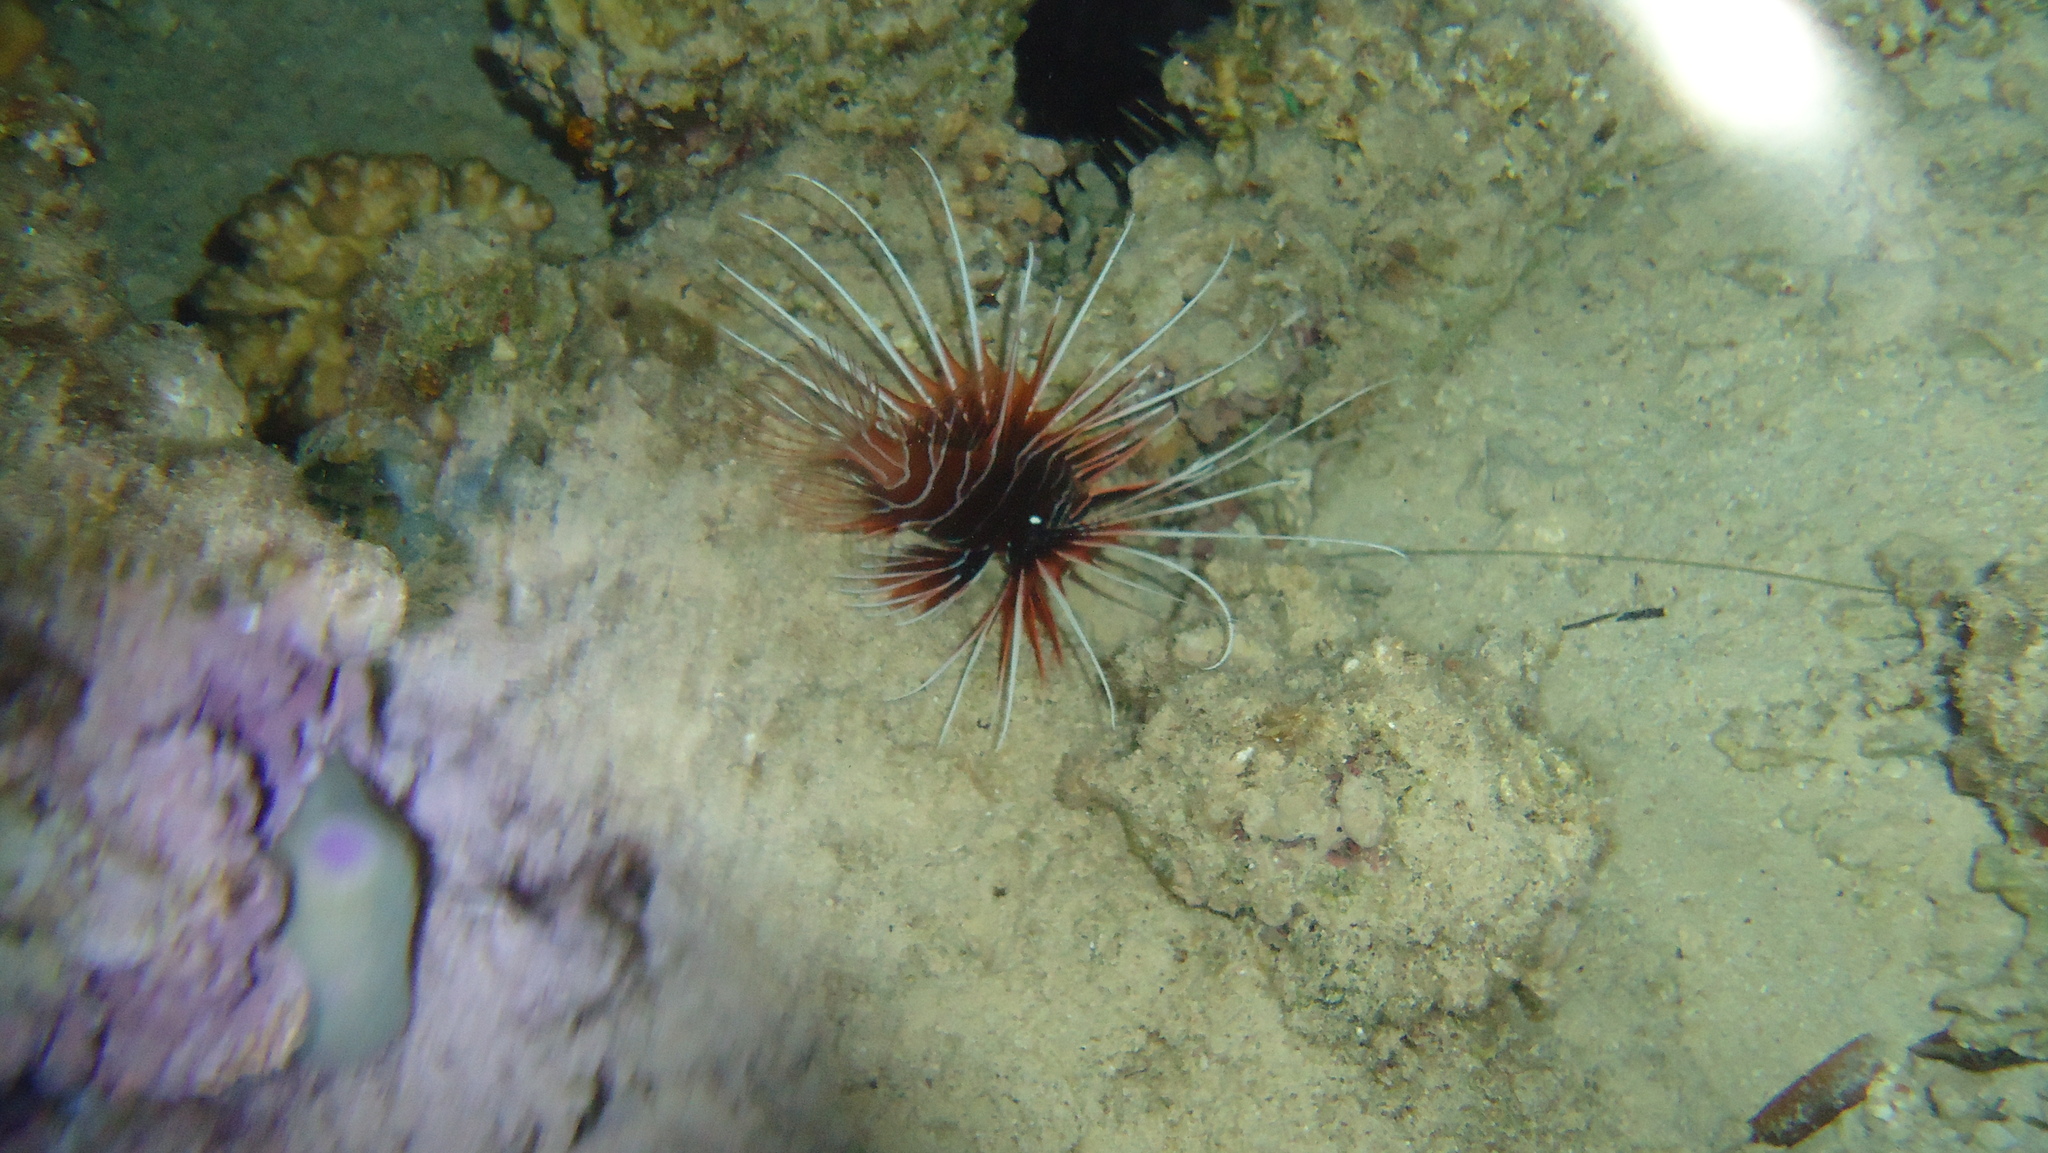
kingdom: Animalia
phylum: Chordata
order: Scorpaeniformes
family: Scorpaenidae
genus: Pterois
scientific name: Pterois cincta
